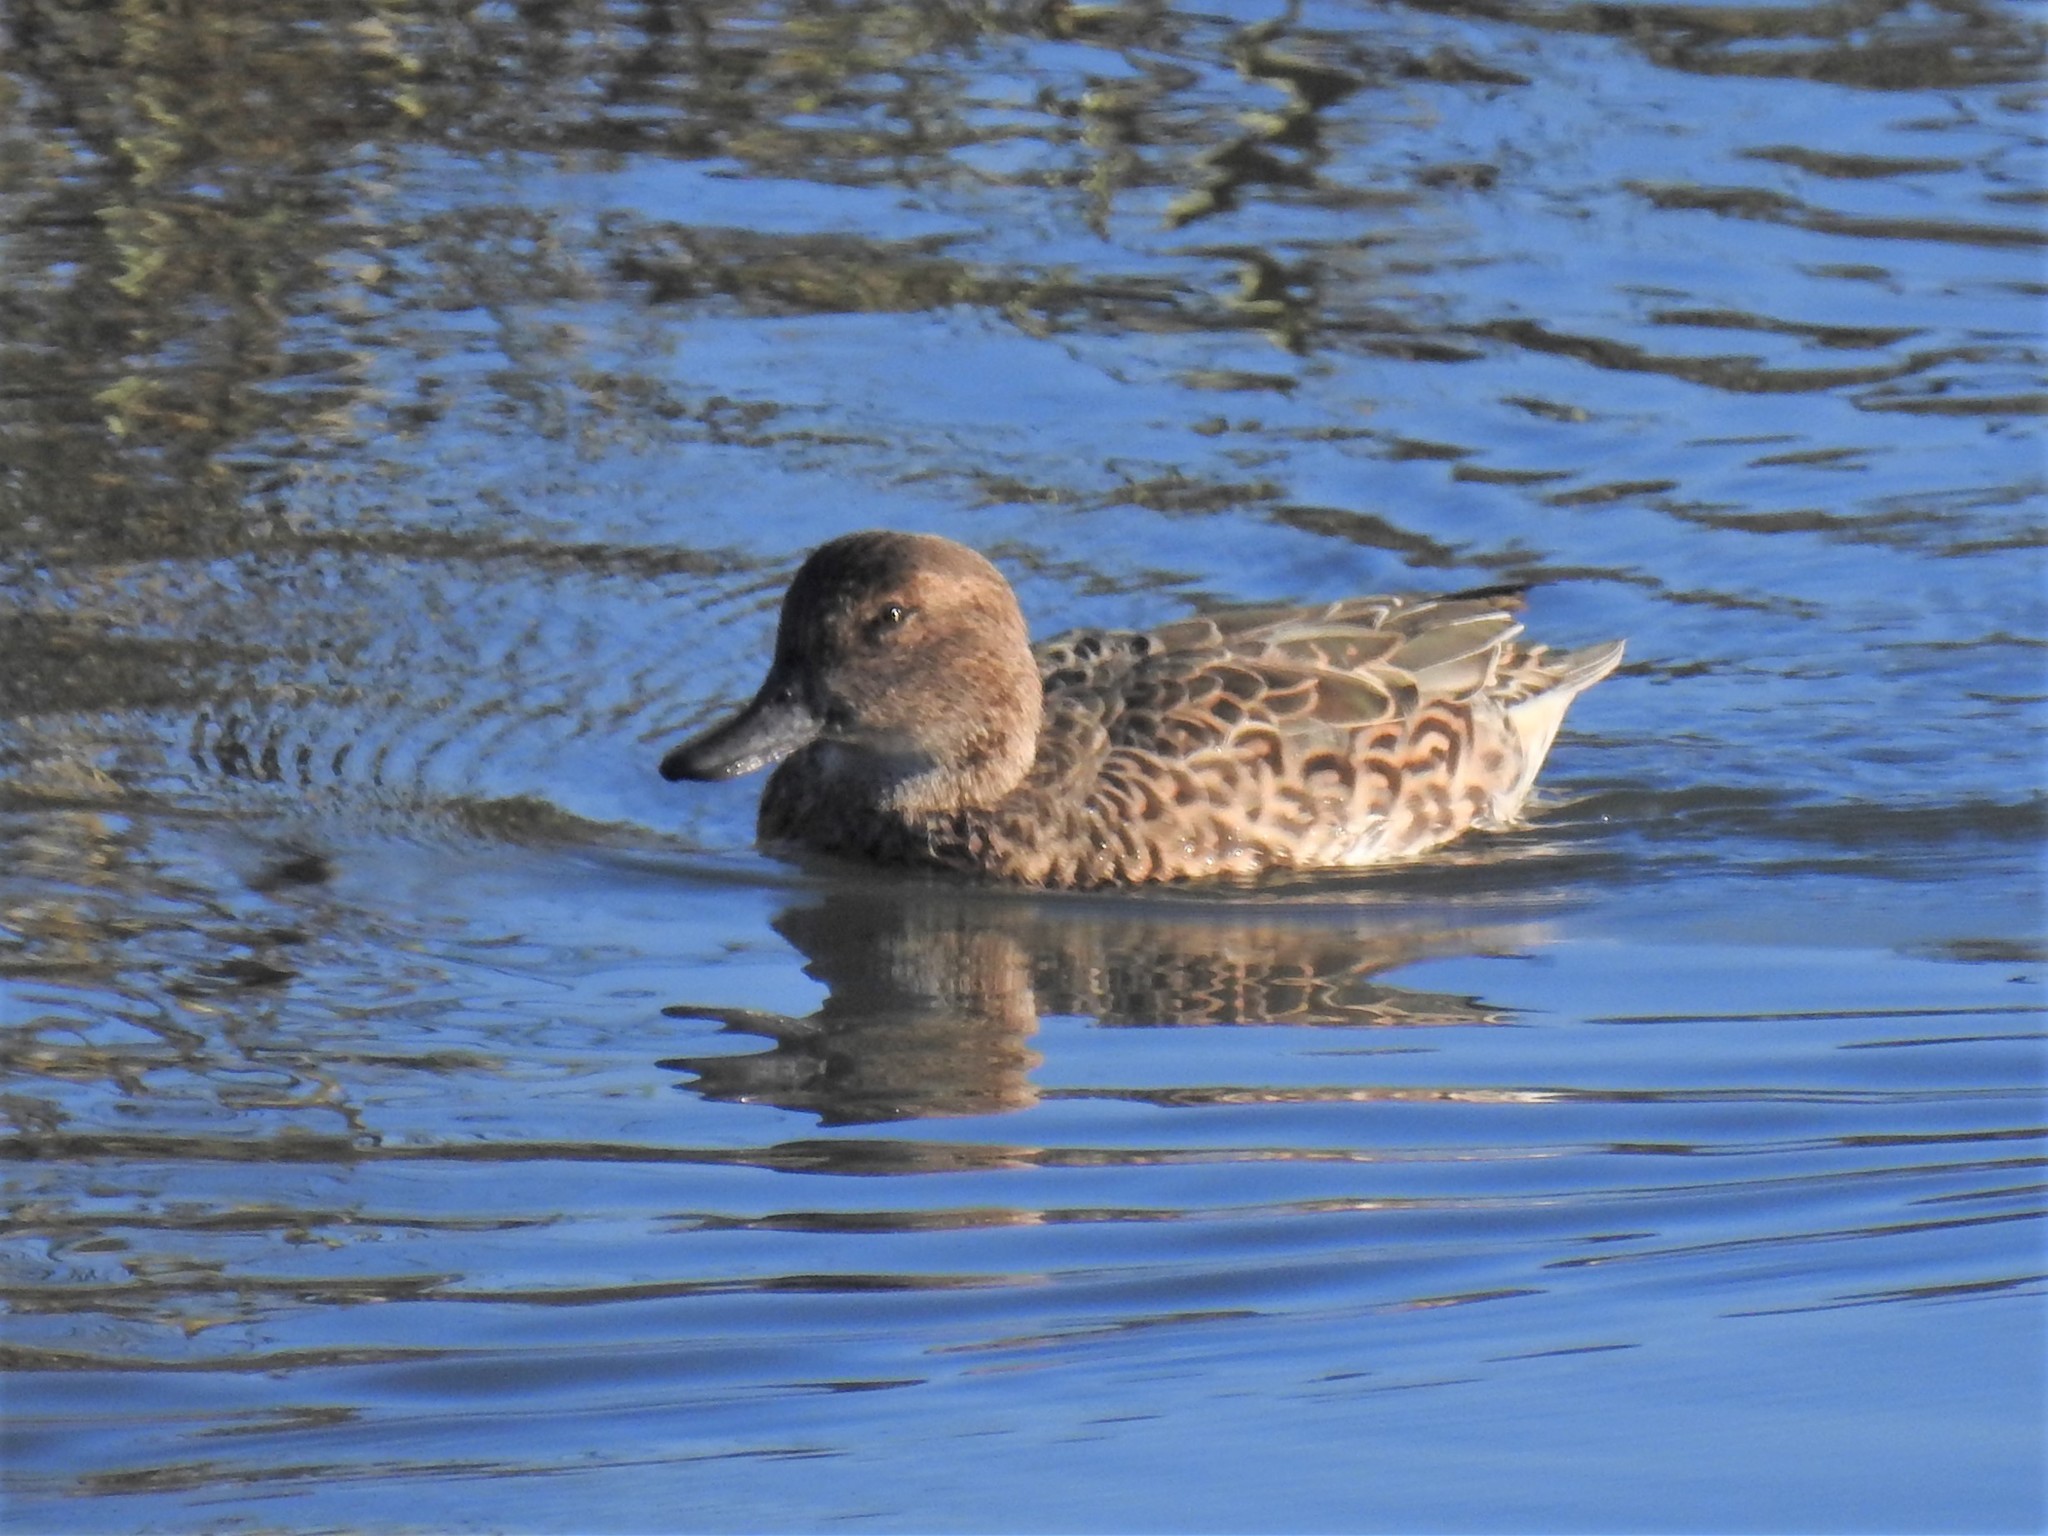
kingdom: Animalia
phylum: Chordata
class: Aves
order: Anseriformes
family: Anatidae
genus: Anas
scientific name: Anas crecca
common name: Eurasian teal
